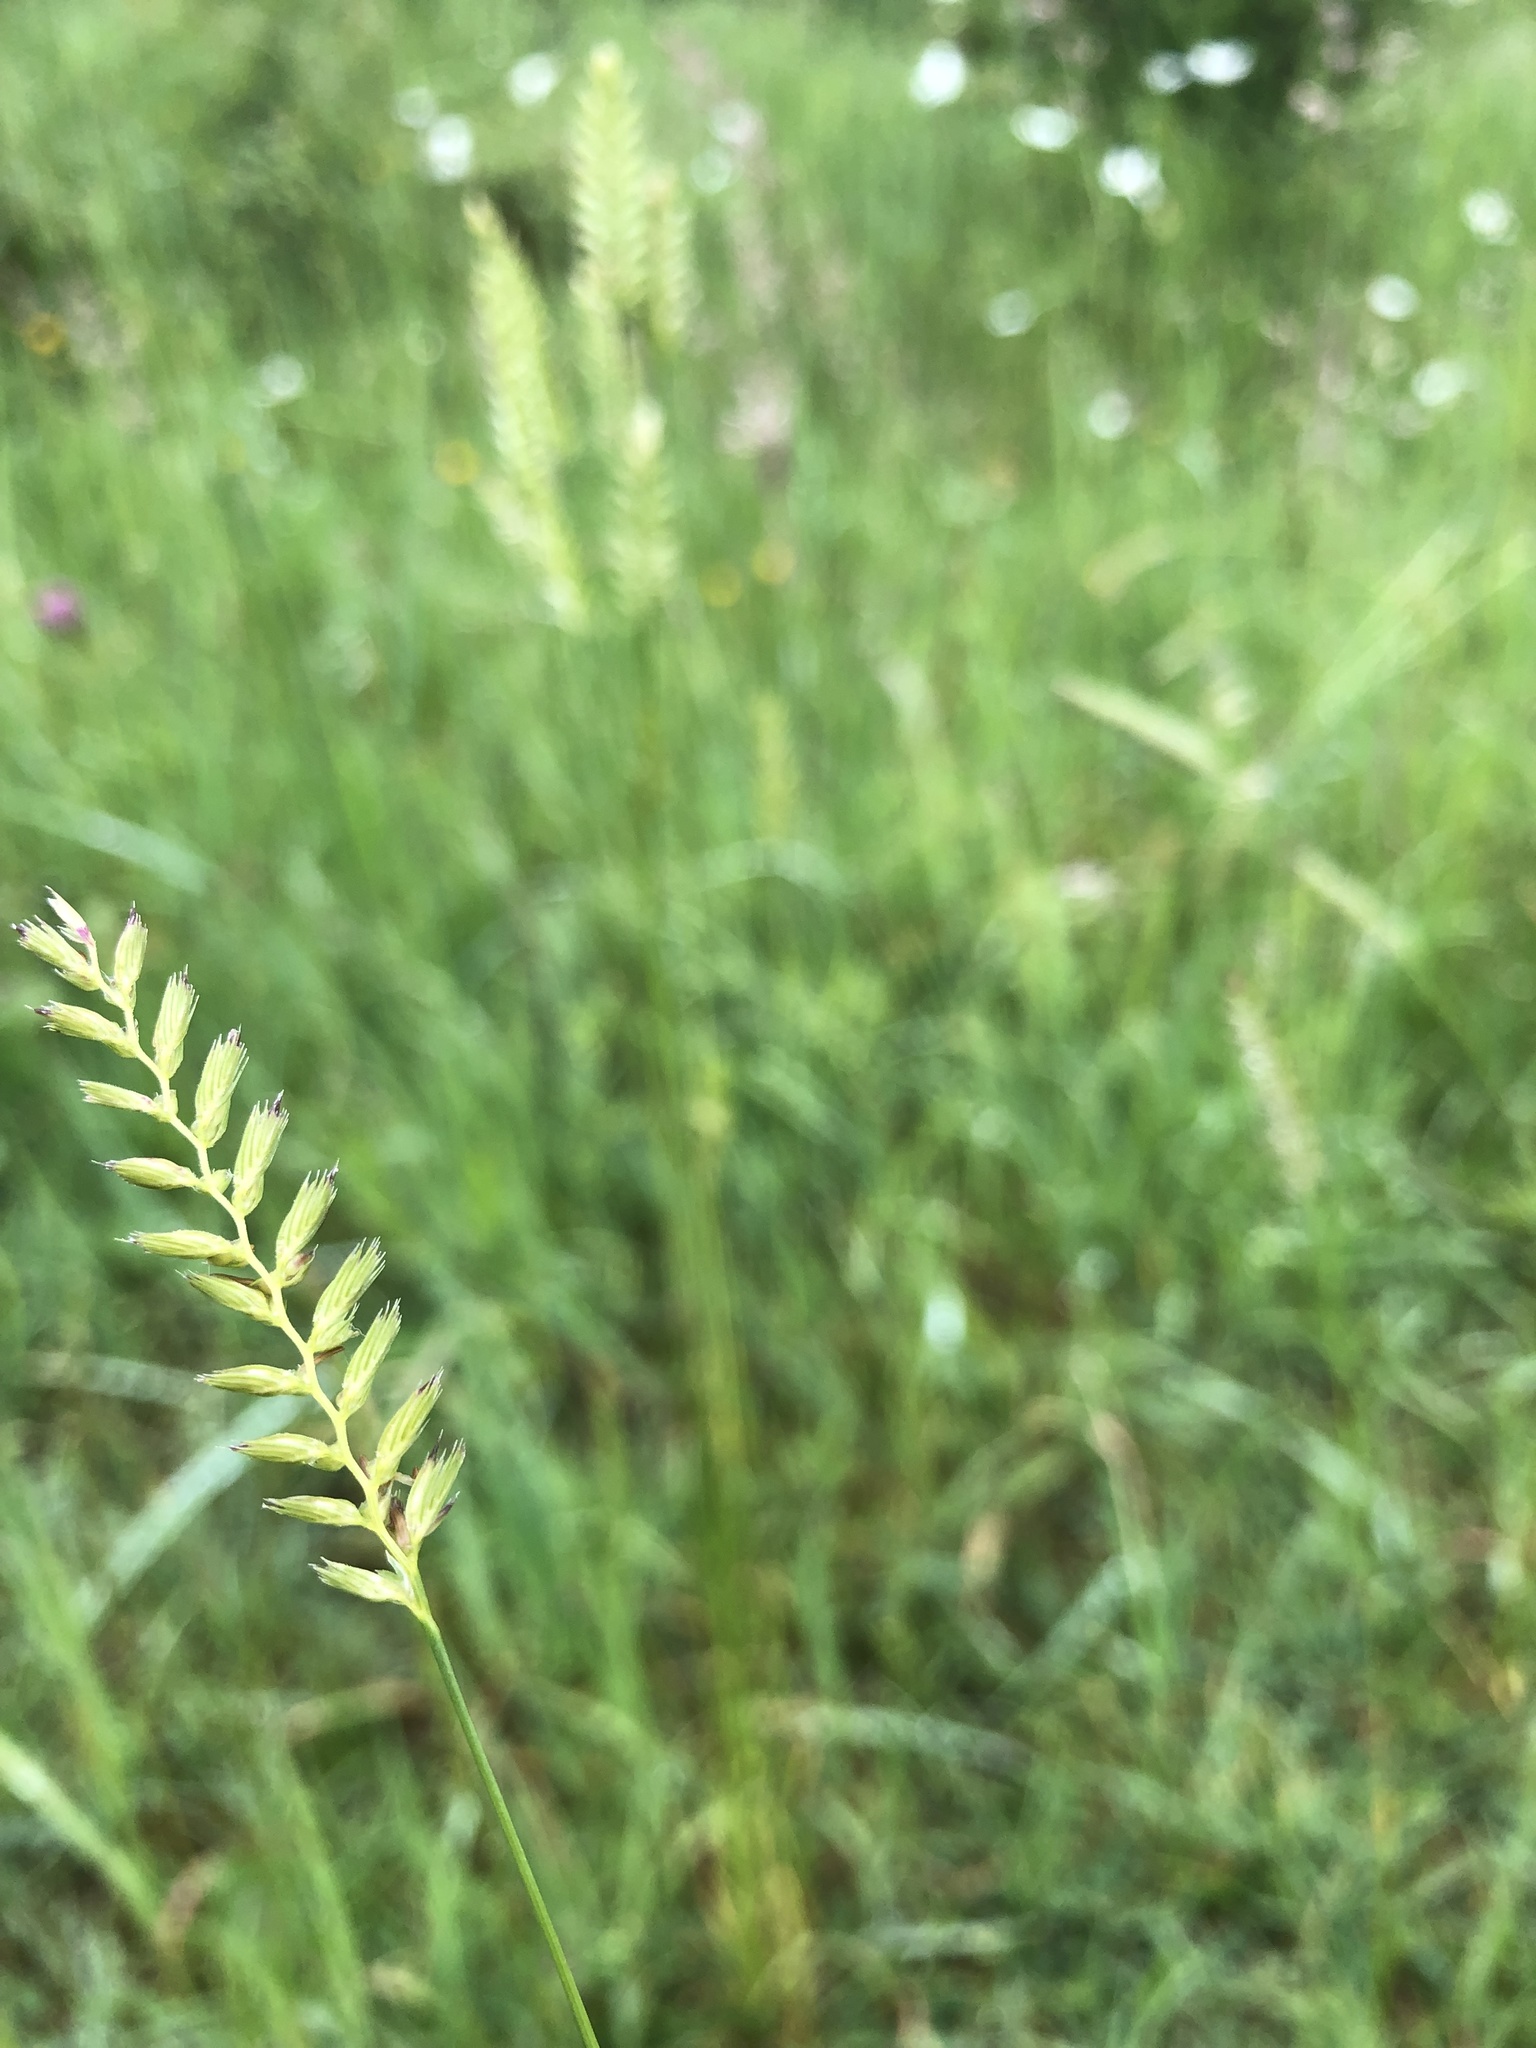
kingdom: Plantae
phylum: Tracheophyta
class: Liliopsida
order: Poales
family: Poaceae
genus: Cynosurus
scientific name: Cynosurus cristatus
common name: Crested dog's-tail
